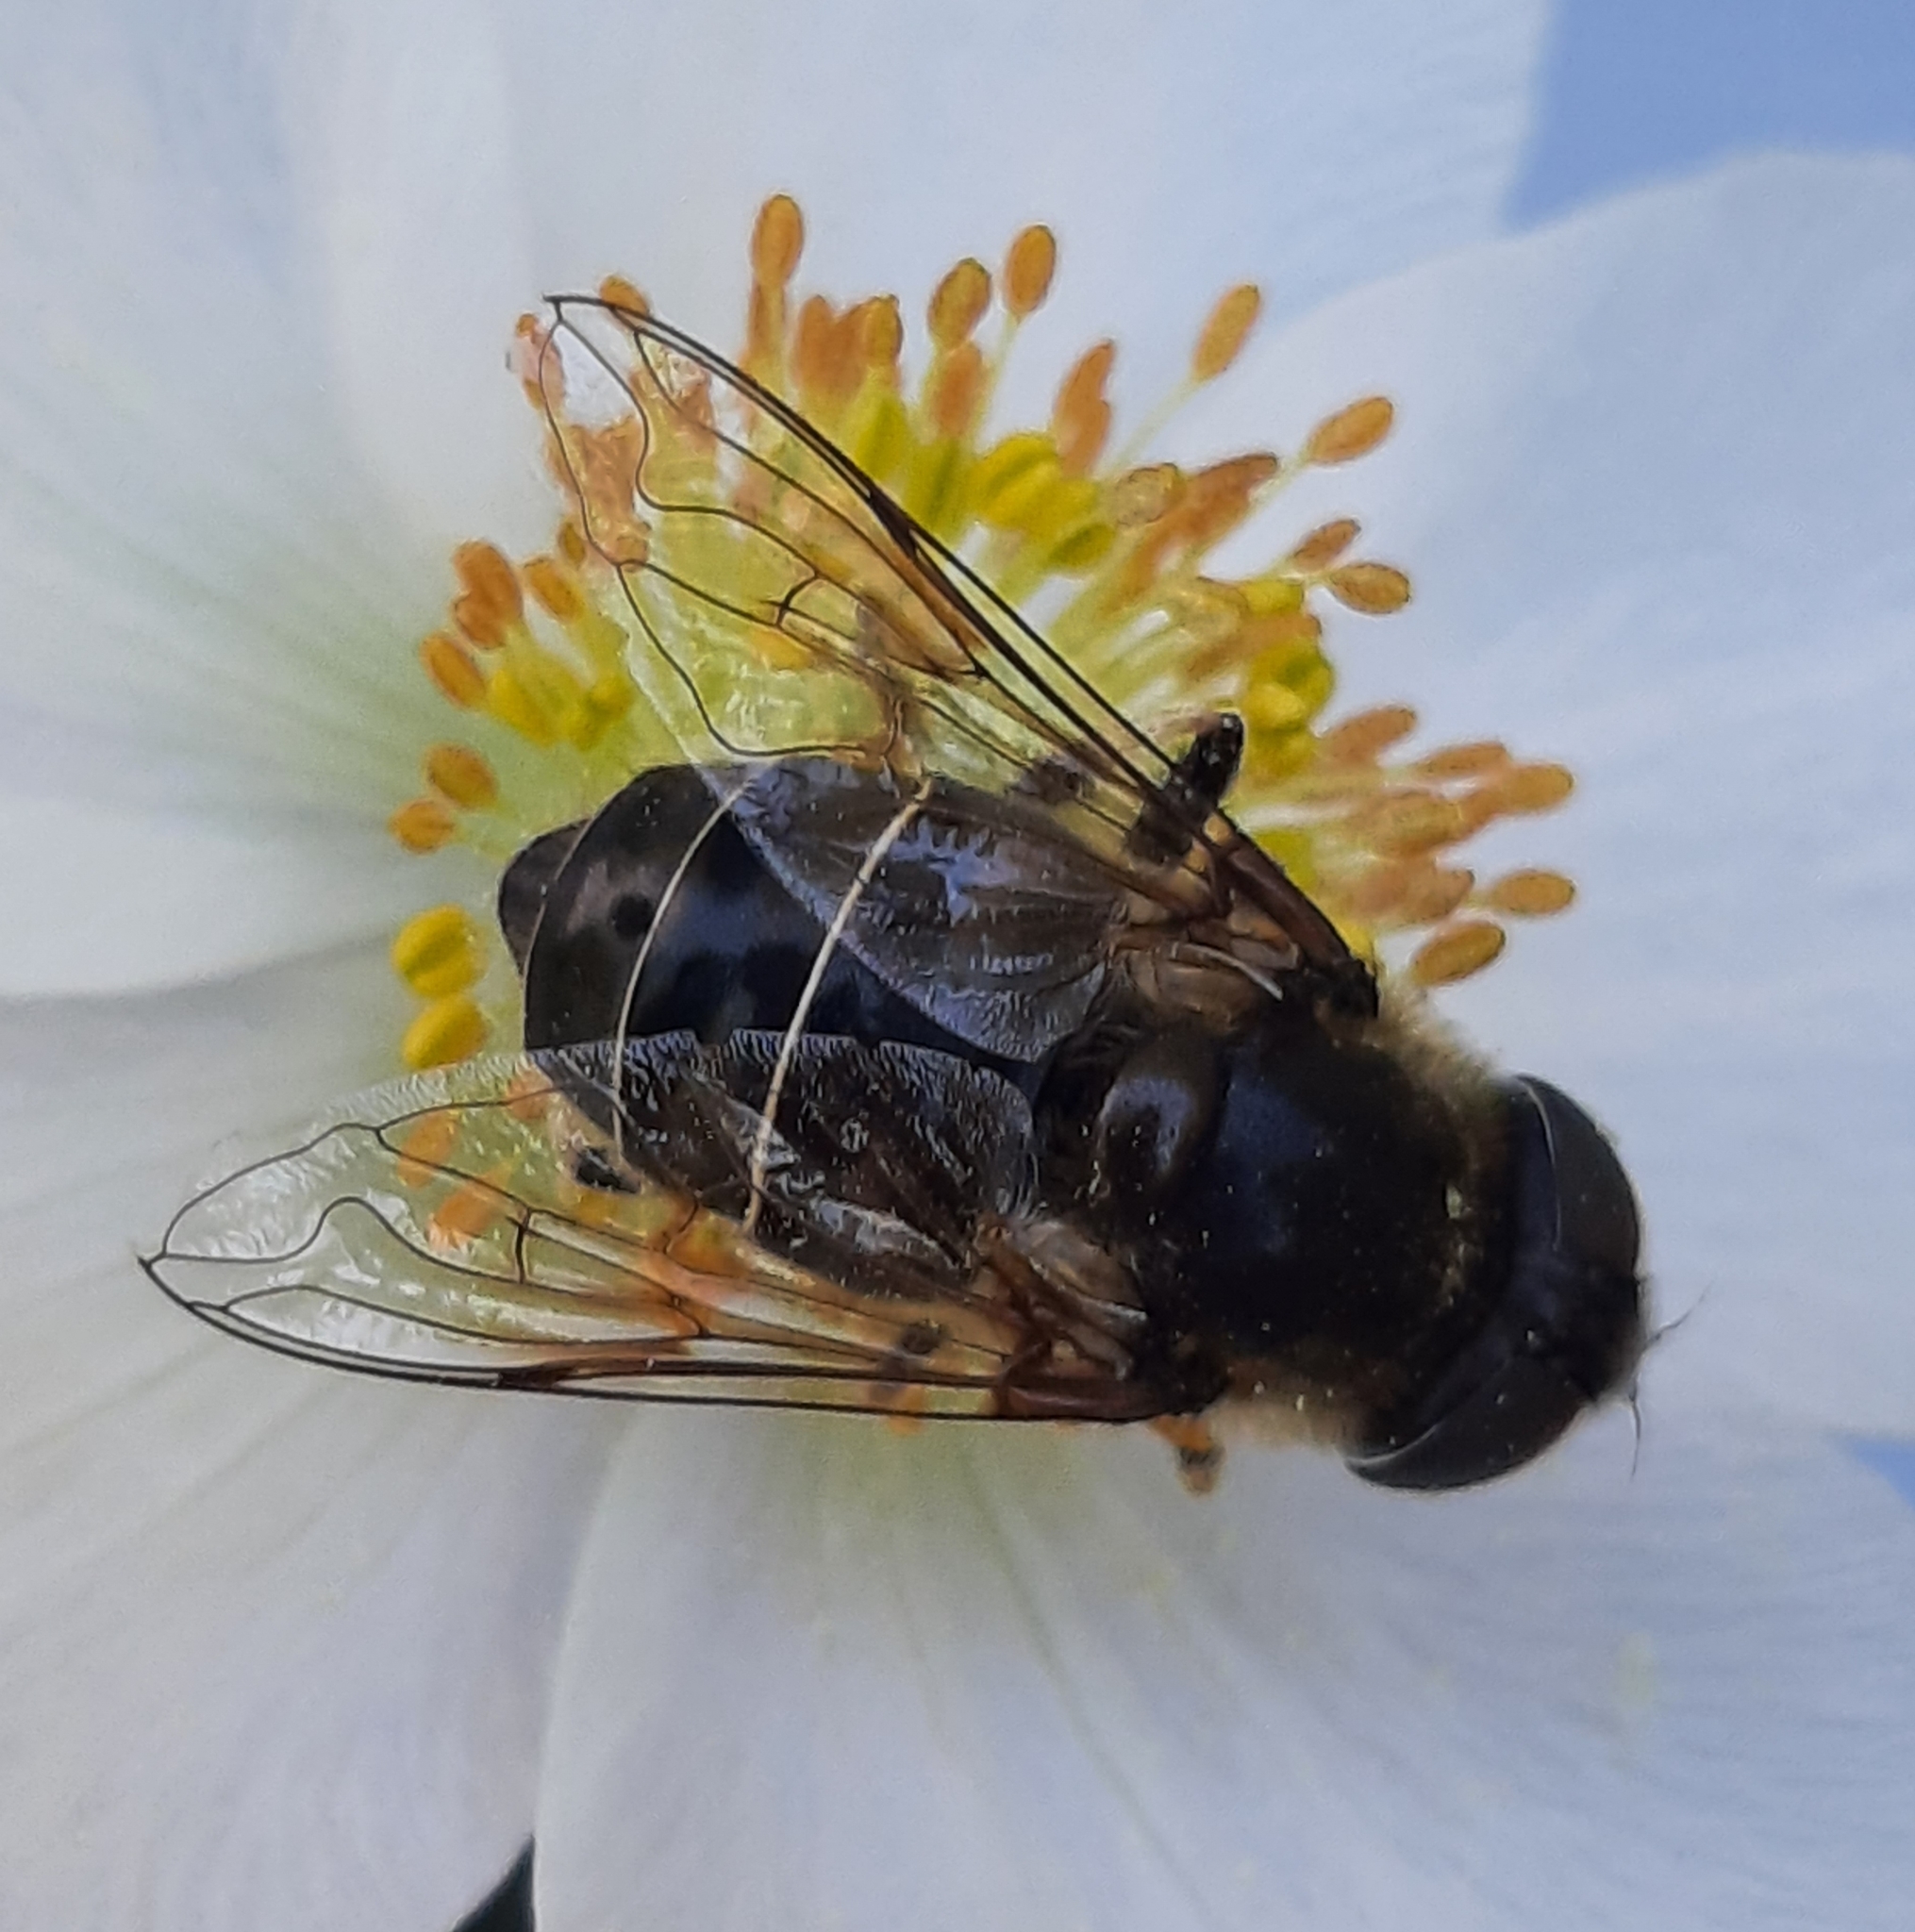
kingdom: Animalia
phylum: Arthropoda
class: Insecta
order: Diptera
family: Syrphidae
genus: Eristalis
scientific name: Eristalis dimidiata
